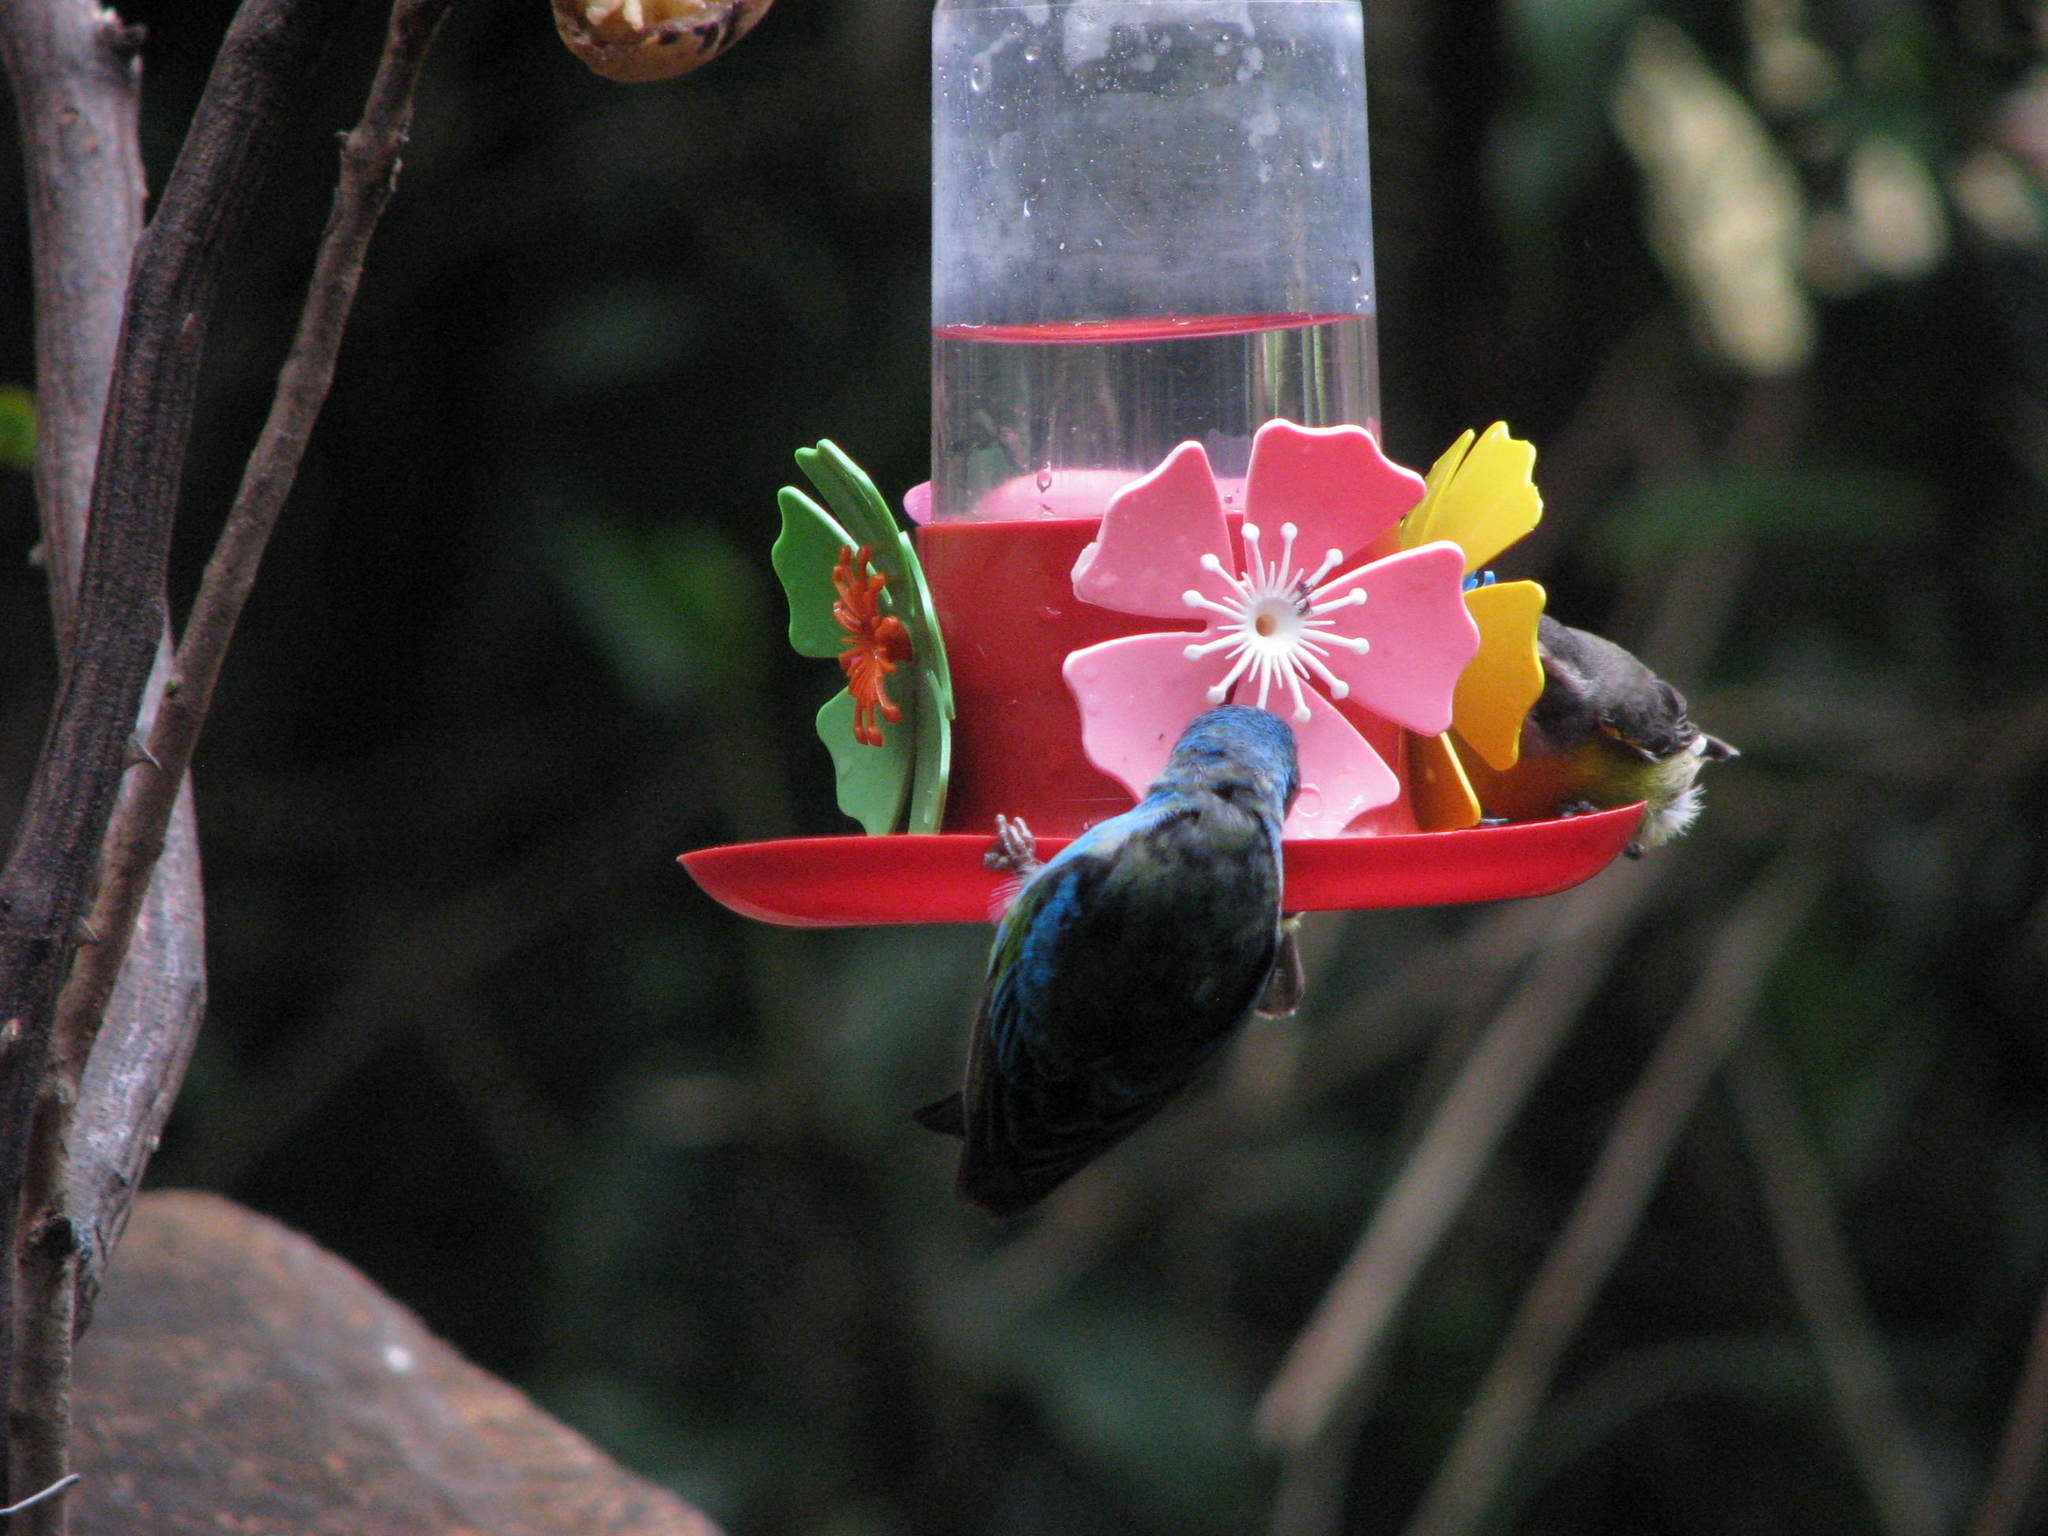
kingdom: Animalia
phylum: Chordata
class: Aves
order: Passeriformes
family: Thraupidae
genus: Dacnis
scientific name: Dacnis cayana
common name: Blue dacnis
